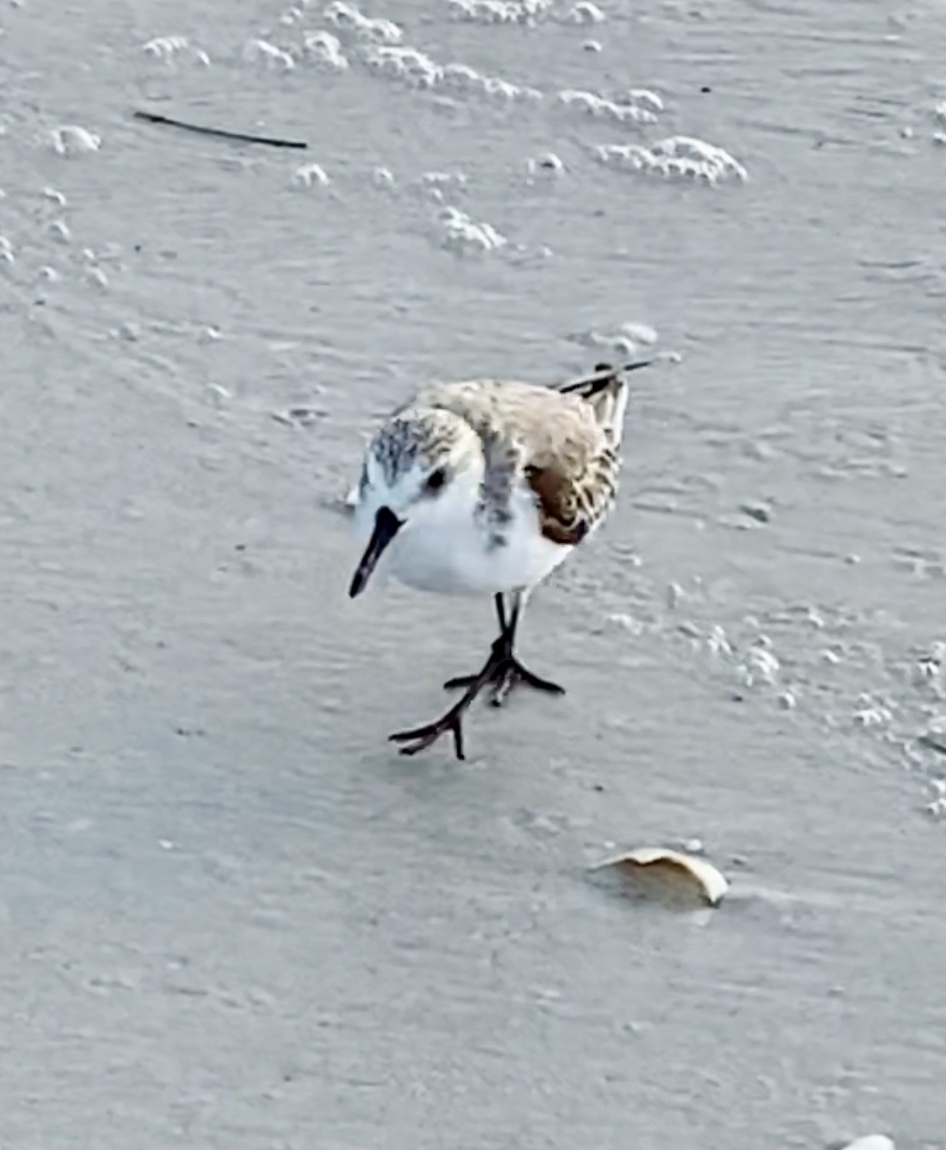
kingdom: Animalia
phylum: Chordata
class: Aves
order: Charadriiformes
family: Scolopacidae
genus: Calidris
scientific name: Calidris alba
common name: Sanderling
